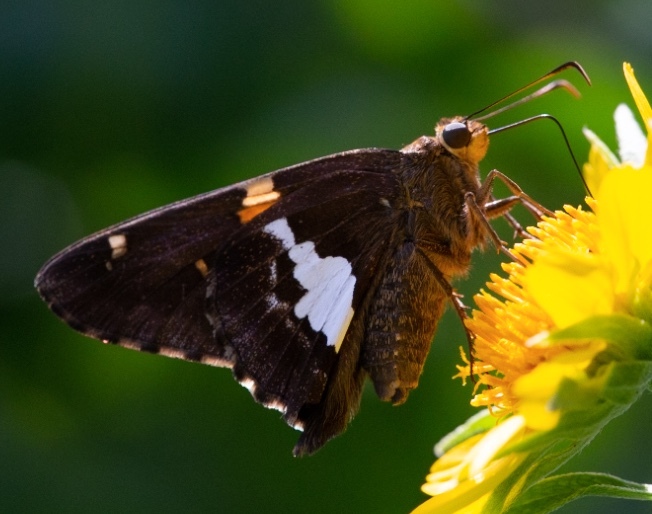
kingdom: Animalia
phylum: Arthropoda
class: Insecta
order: Lepidoptera
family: Hesperiidae
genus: Epargyreus
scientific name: Epargyreus clarus
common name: Silver-spotted skipper
